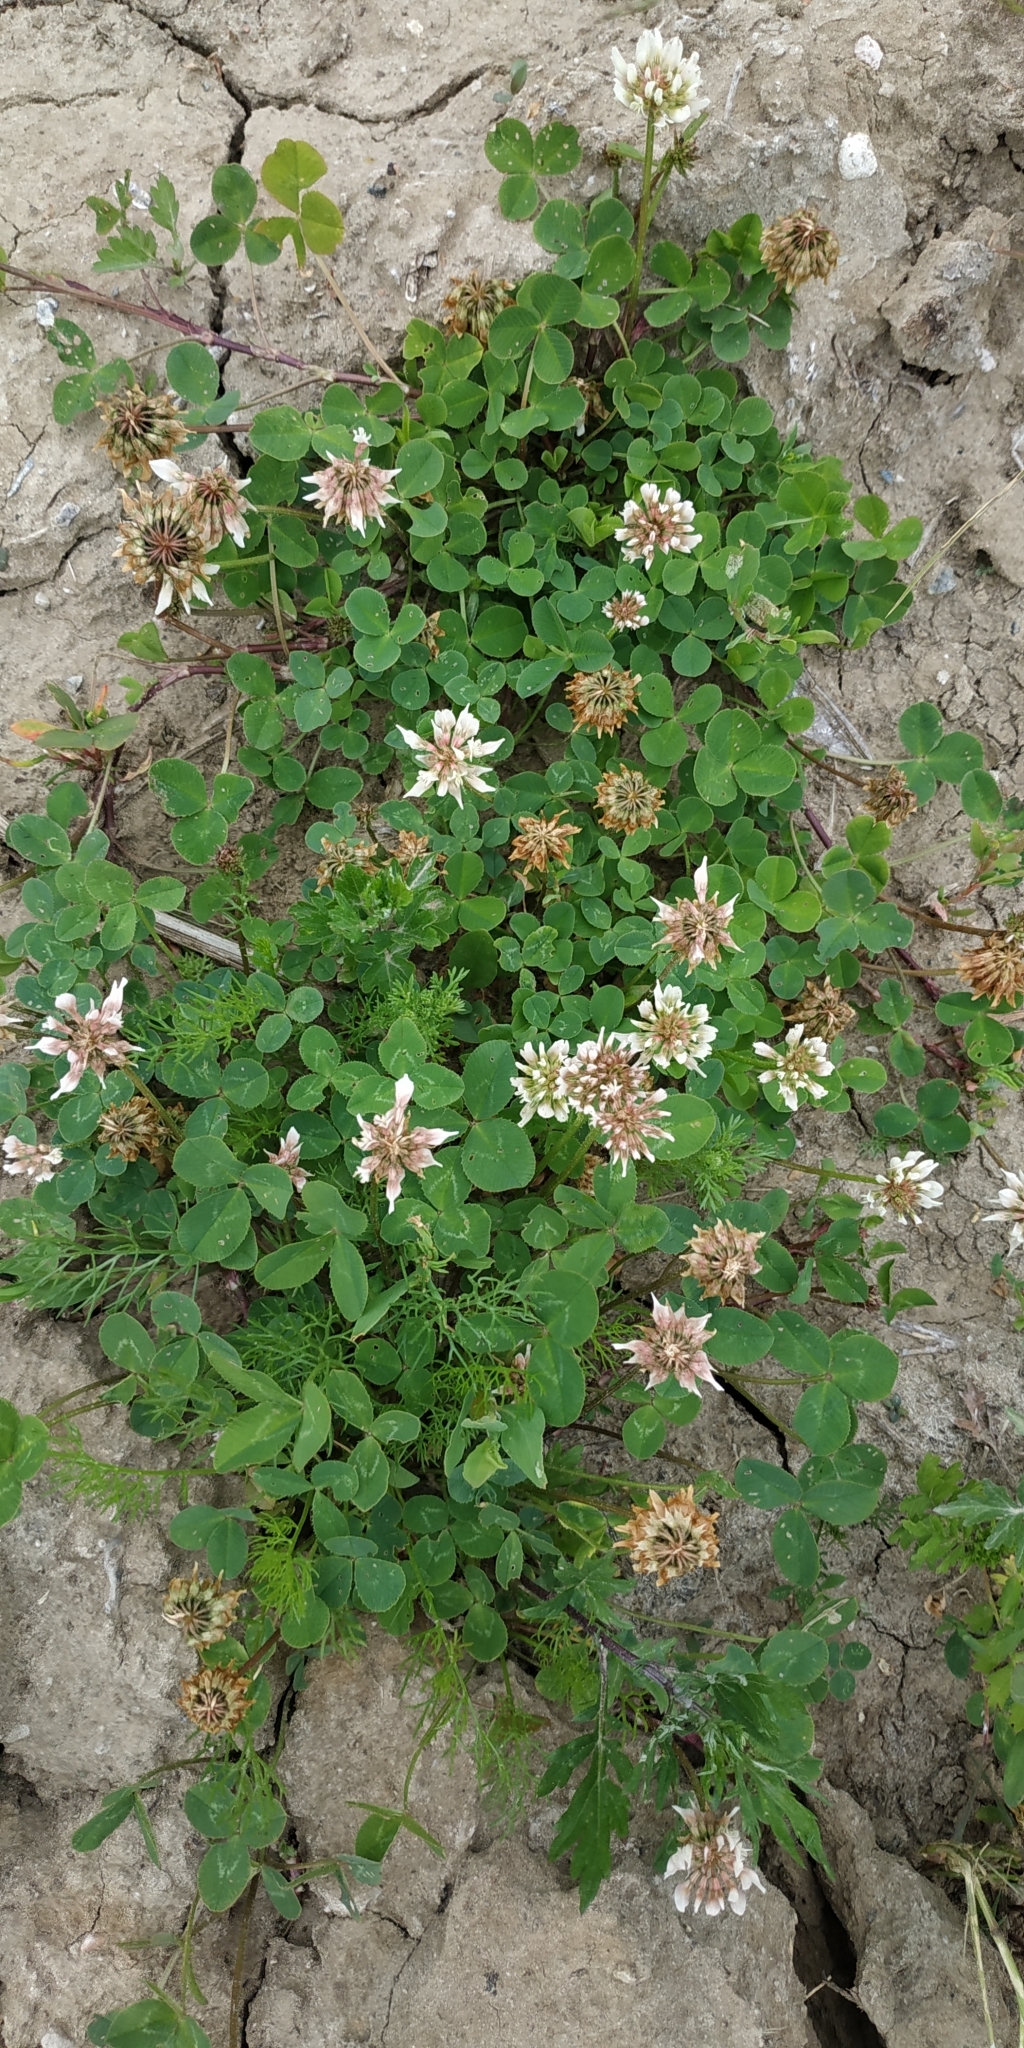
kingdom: Plantae
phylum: Tracheophyta
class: Magnoliopsida
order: Fabales
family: Fabaceae
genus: Trifolium
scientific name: Trifolium repens
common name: White clover
